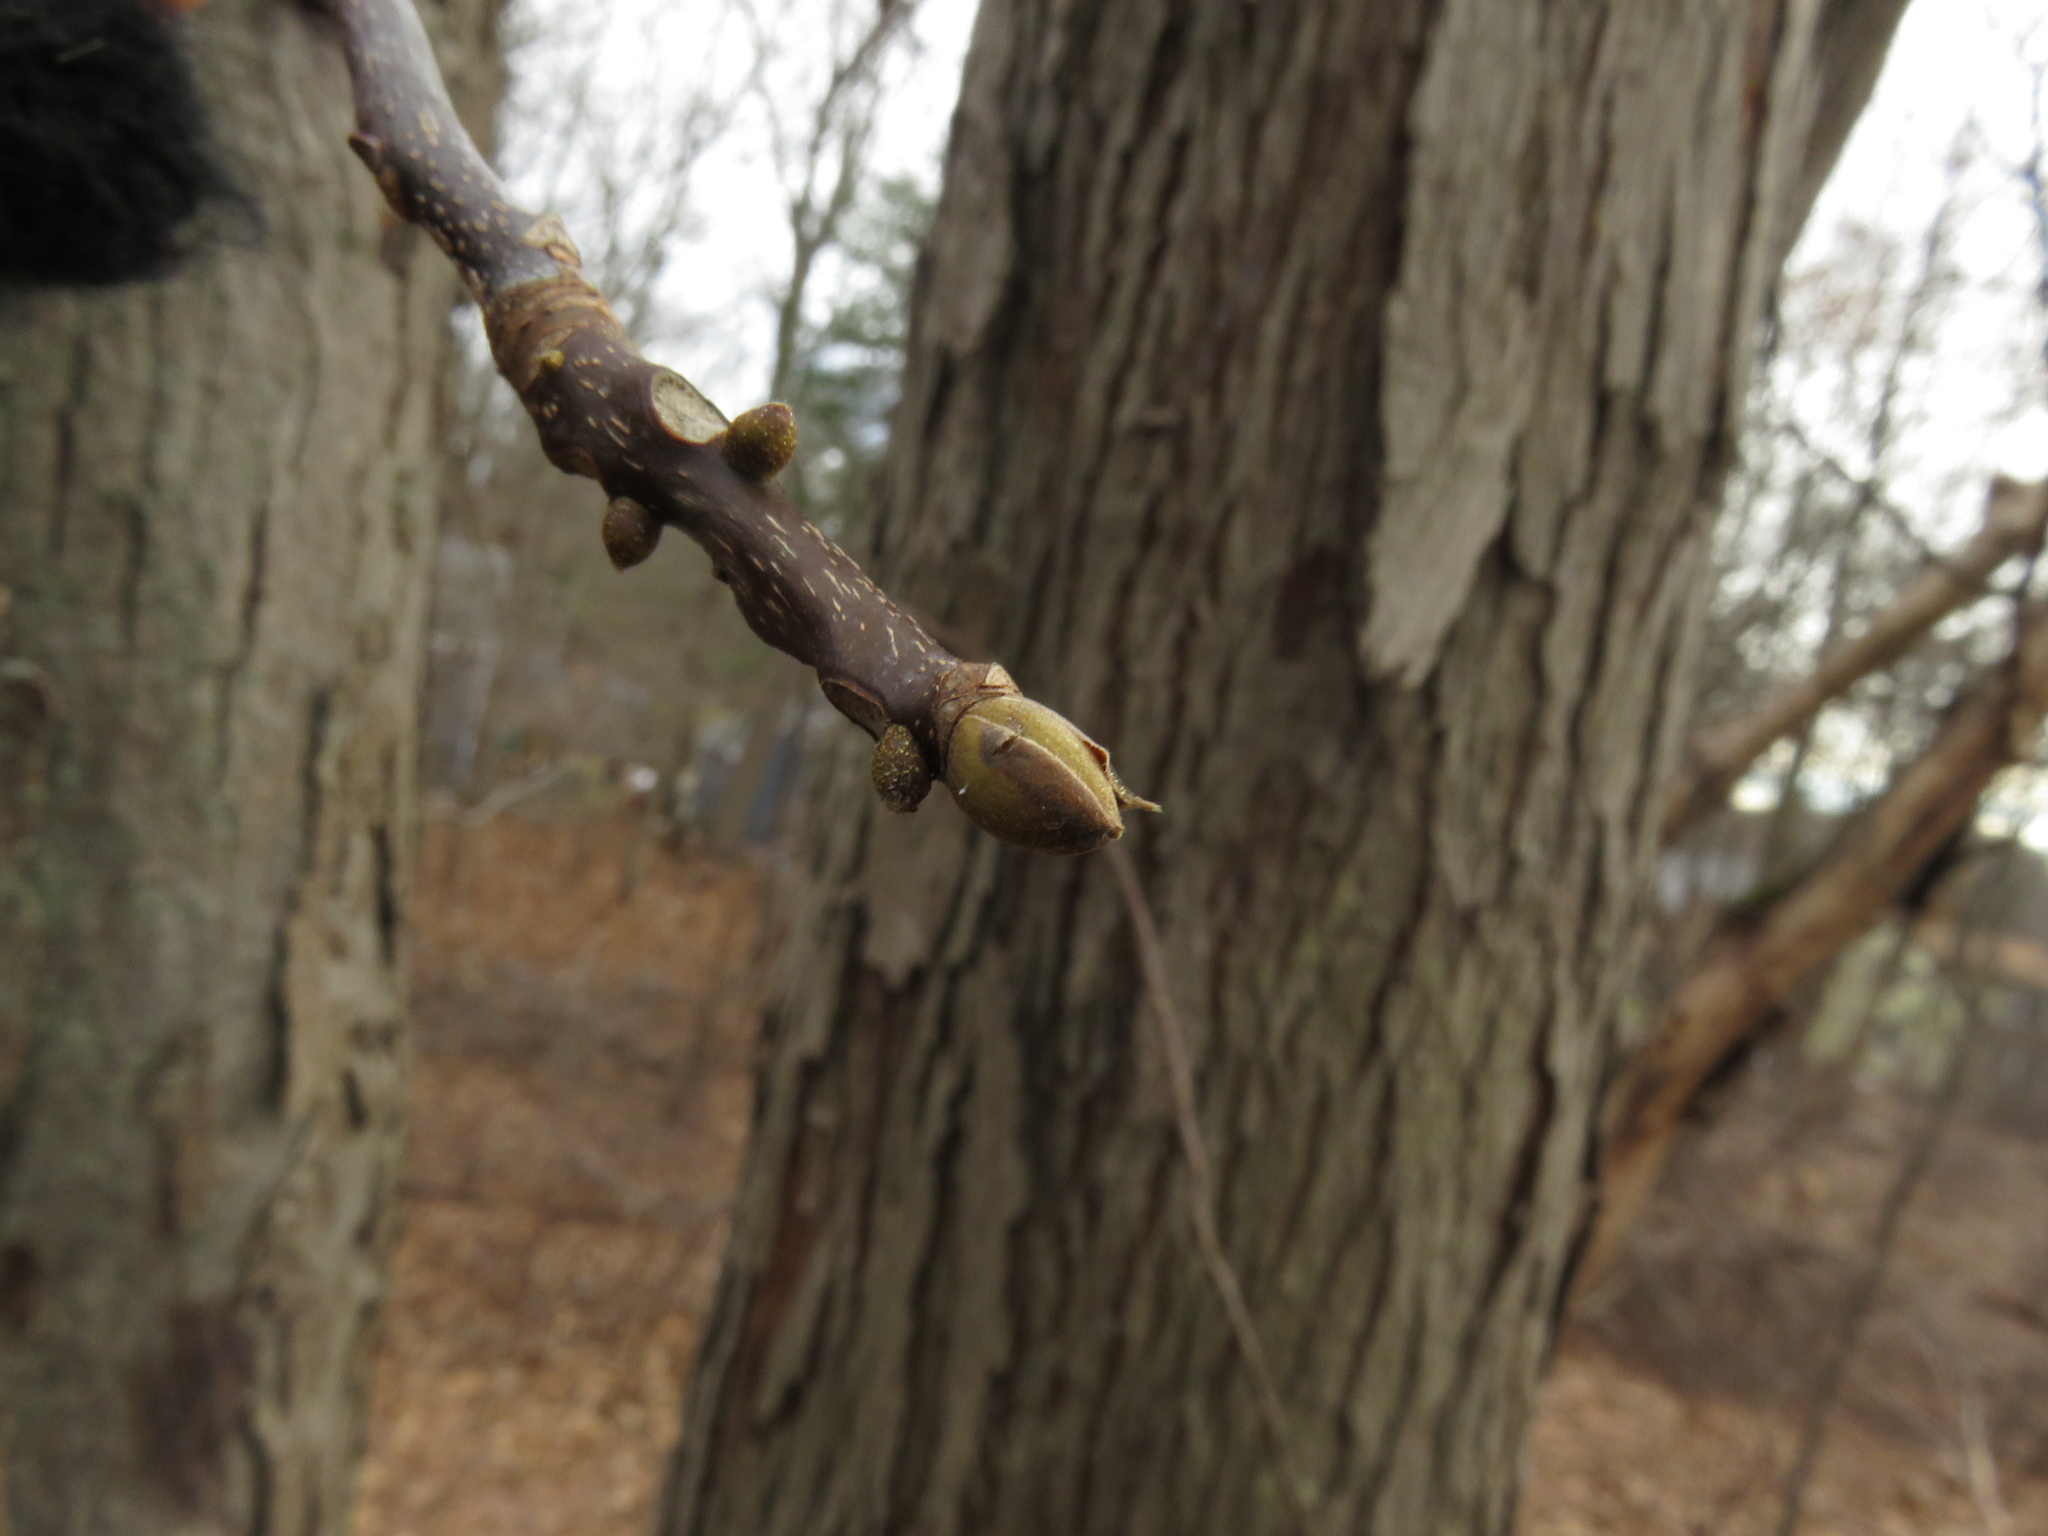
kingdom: Plantae
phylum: Tracheophyta
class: Magnoliopsida
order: Fagales
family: Juglandaceae
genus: Carya
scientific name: Carya glabra
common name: Pignut hickory
